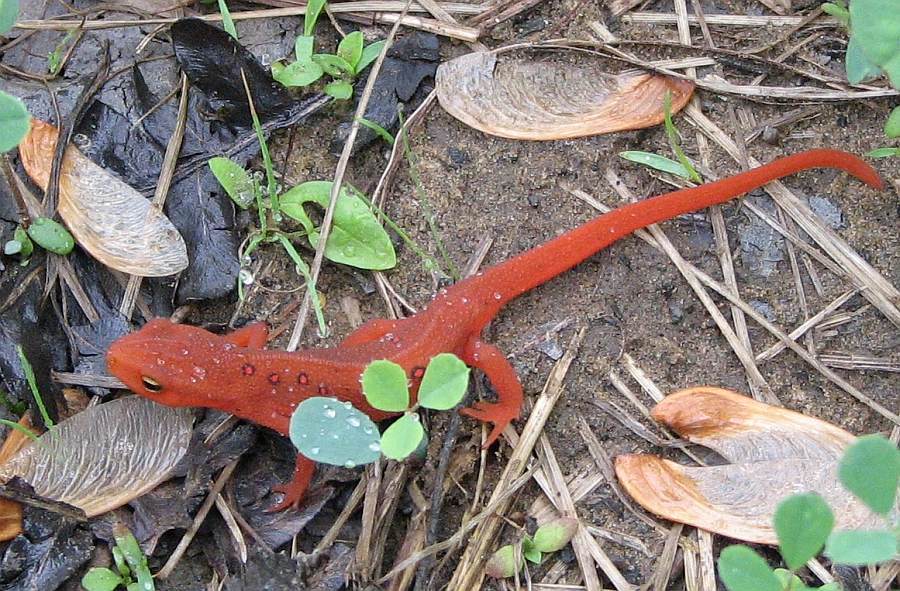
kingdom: Animalia
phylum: Chordata
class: Amphibia
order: Caudata
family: Salamandridae
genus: Notophthalmus
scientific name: Notophthalmus viridescens
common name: Eastern newt
